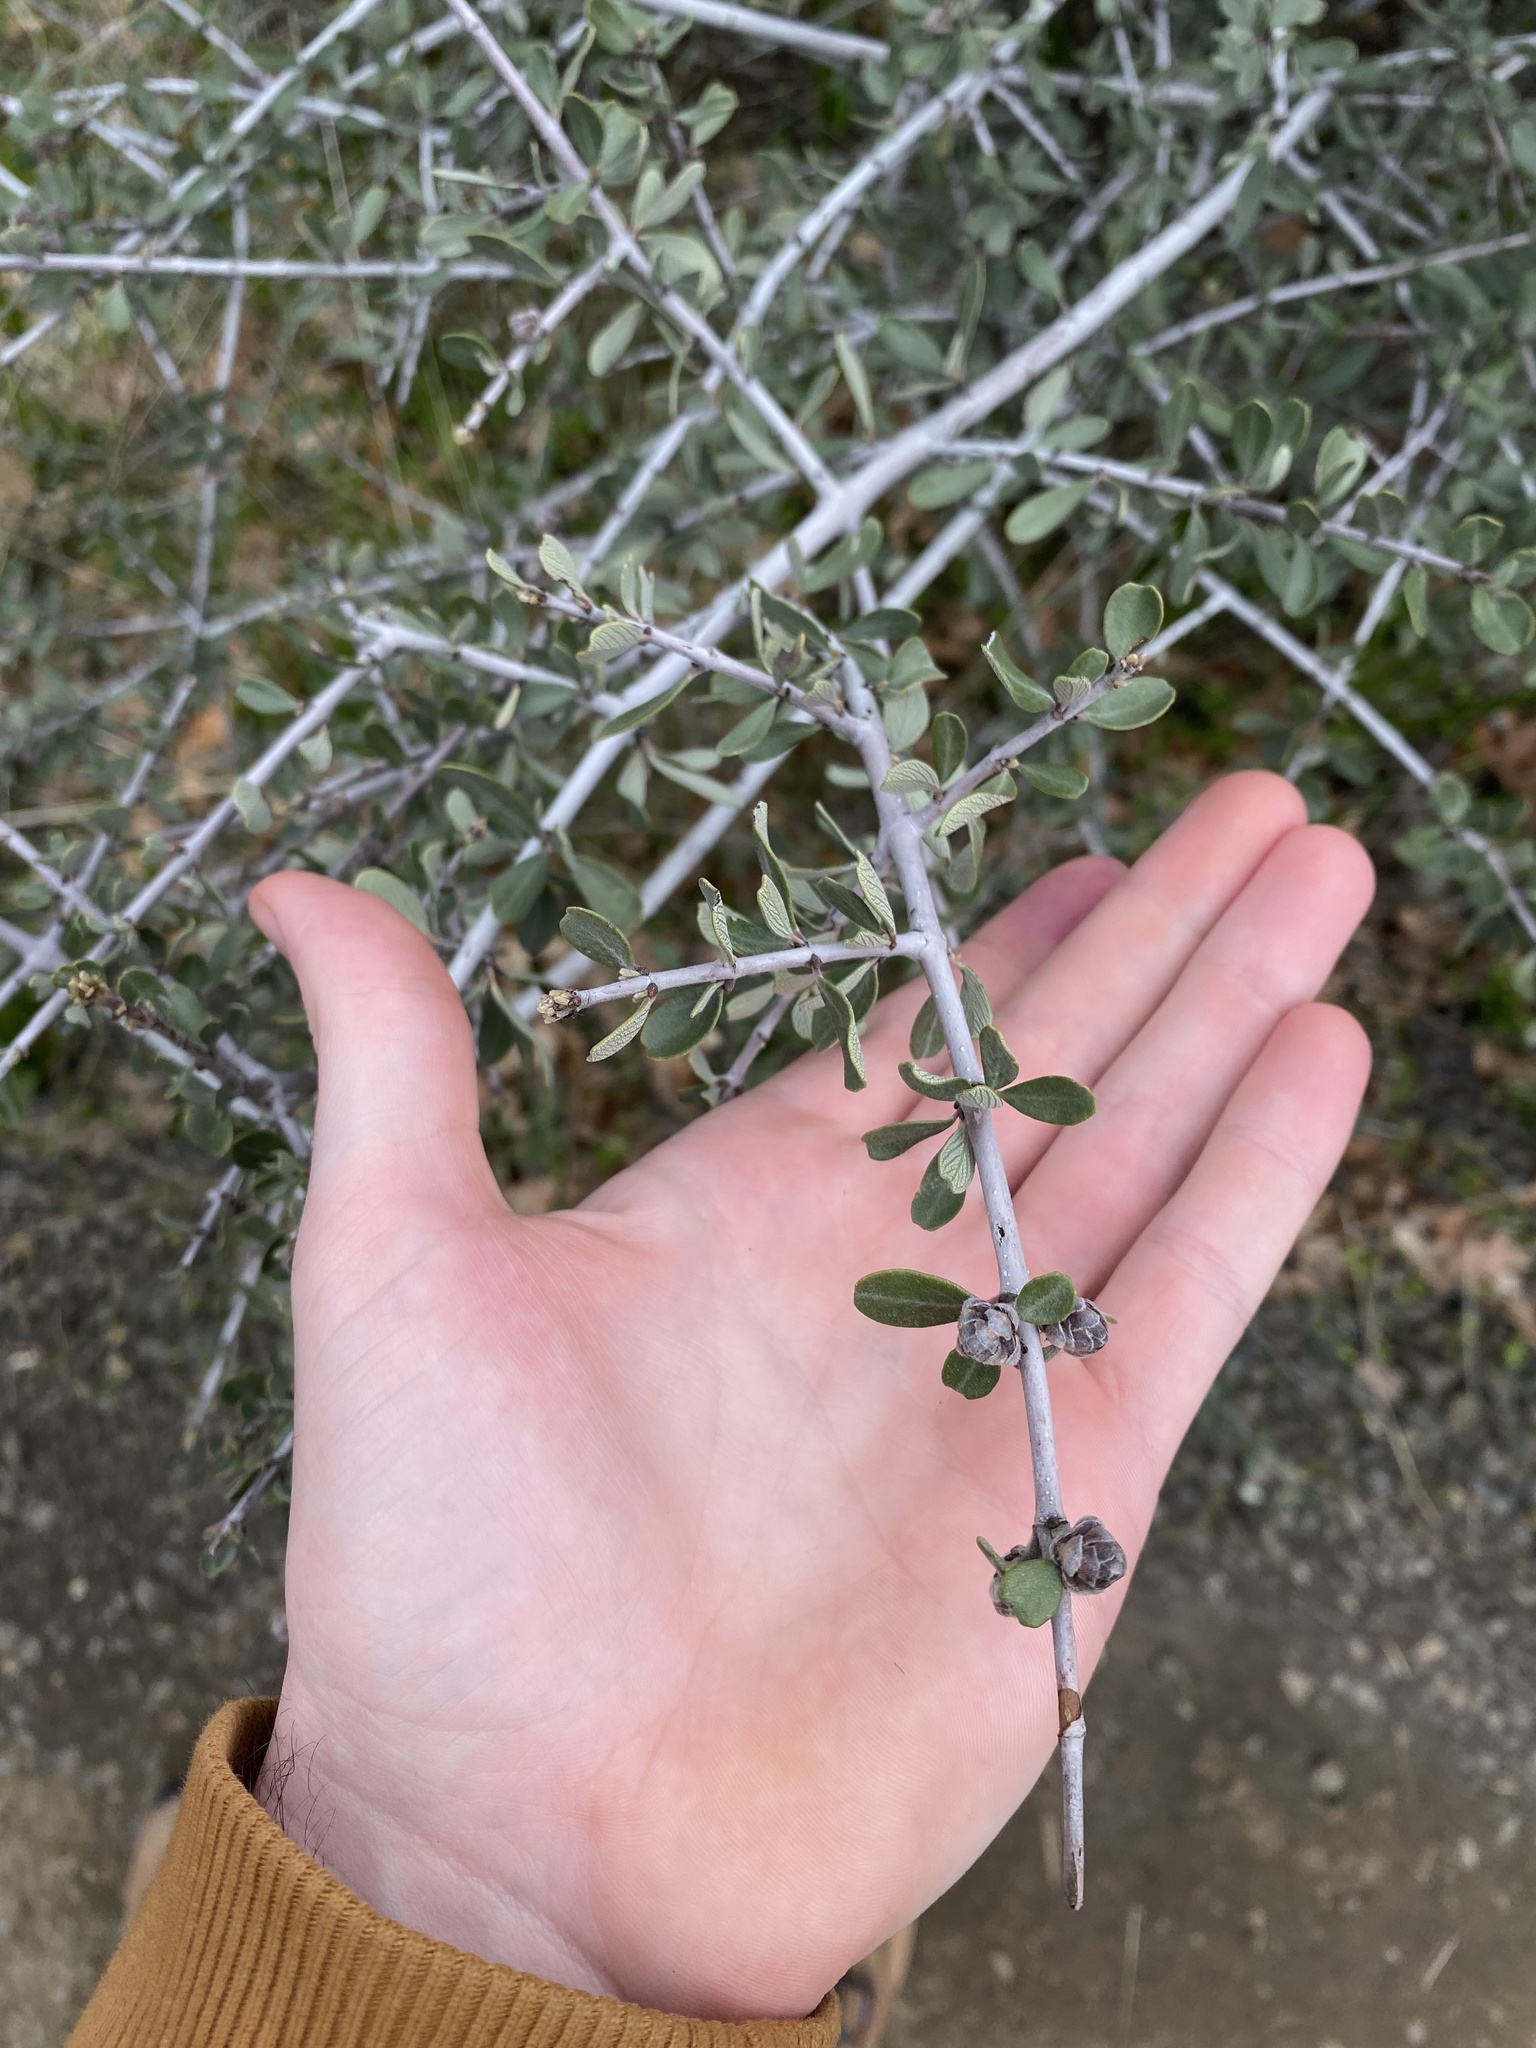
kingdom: Plantae
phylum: Tracheophyta
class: Magnoliopsida
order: Rosales
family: Rhamnaceae
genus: Ceanothus
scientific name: Ceanothus cuneatus
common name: Cuneate ceanothus
